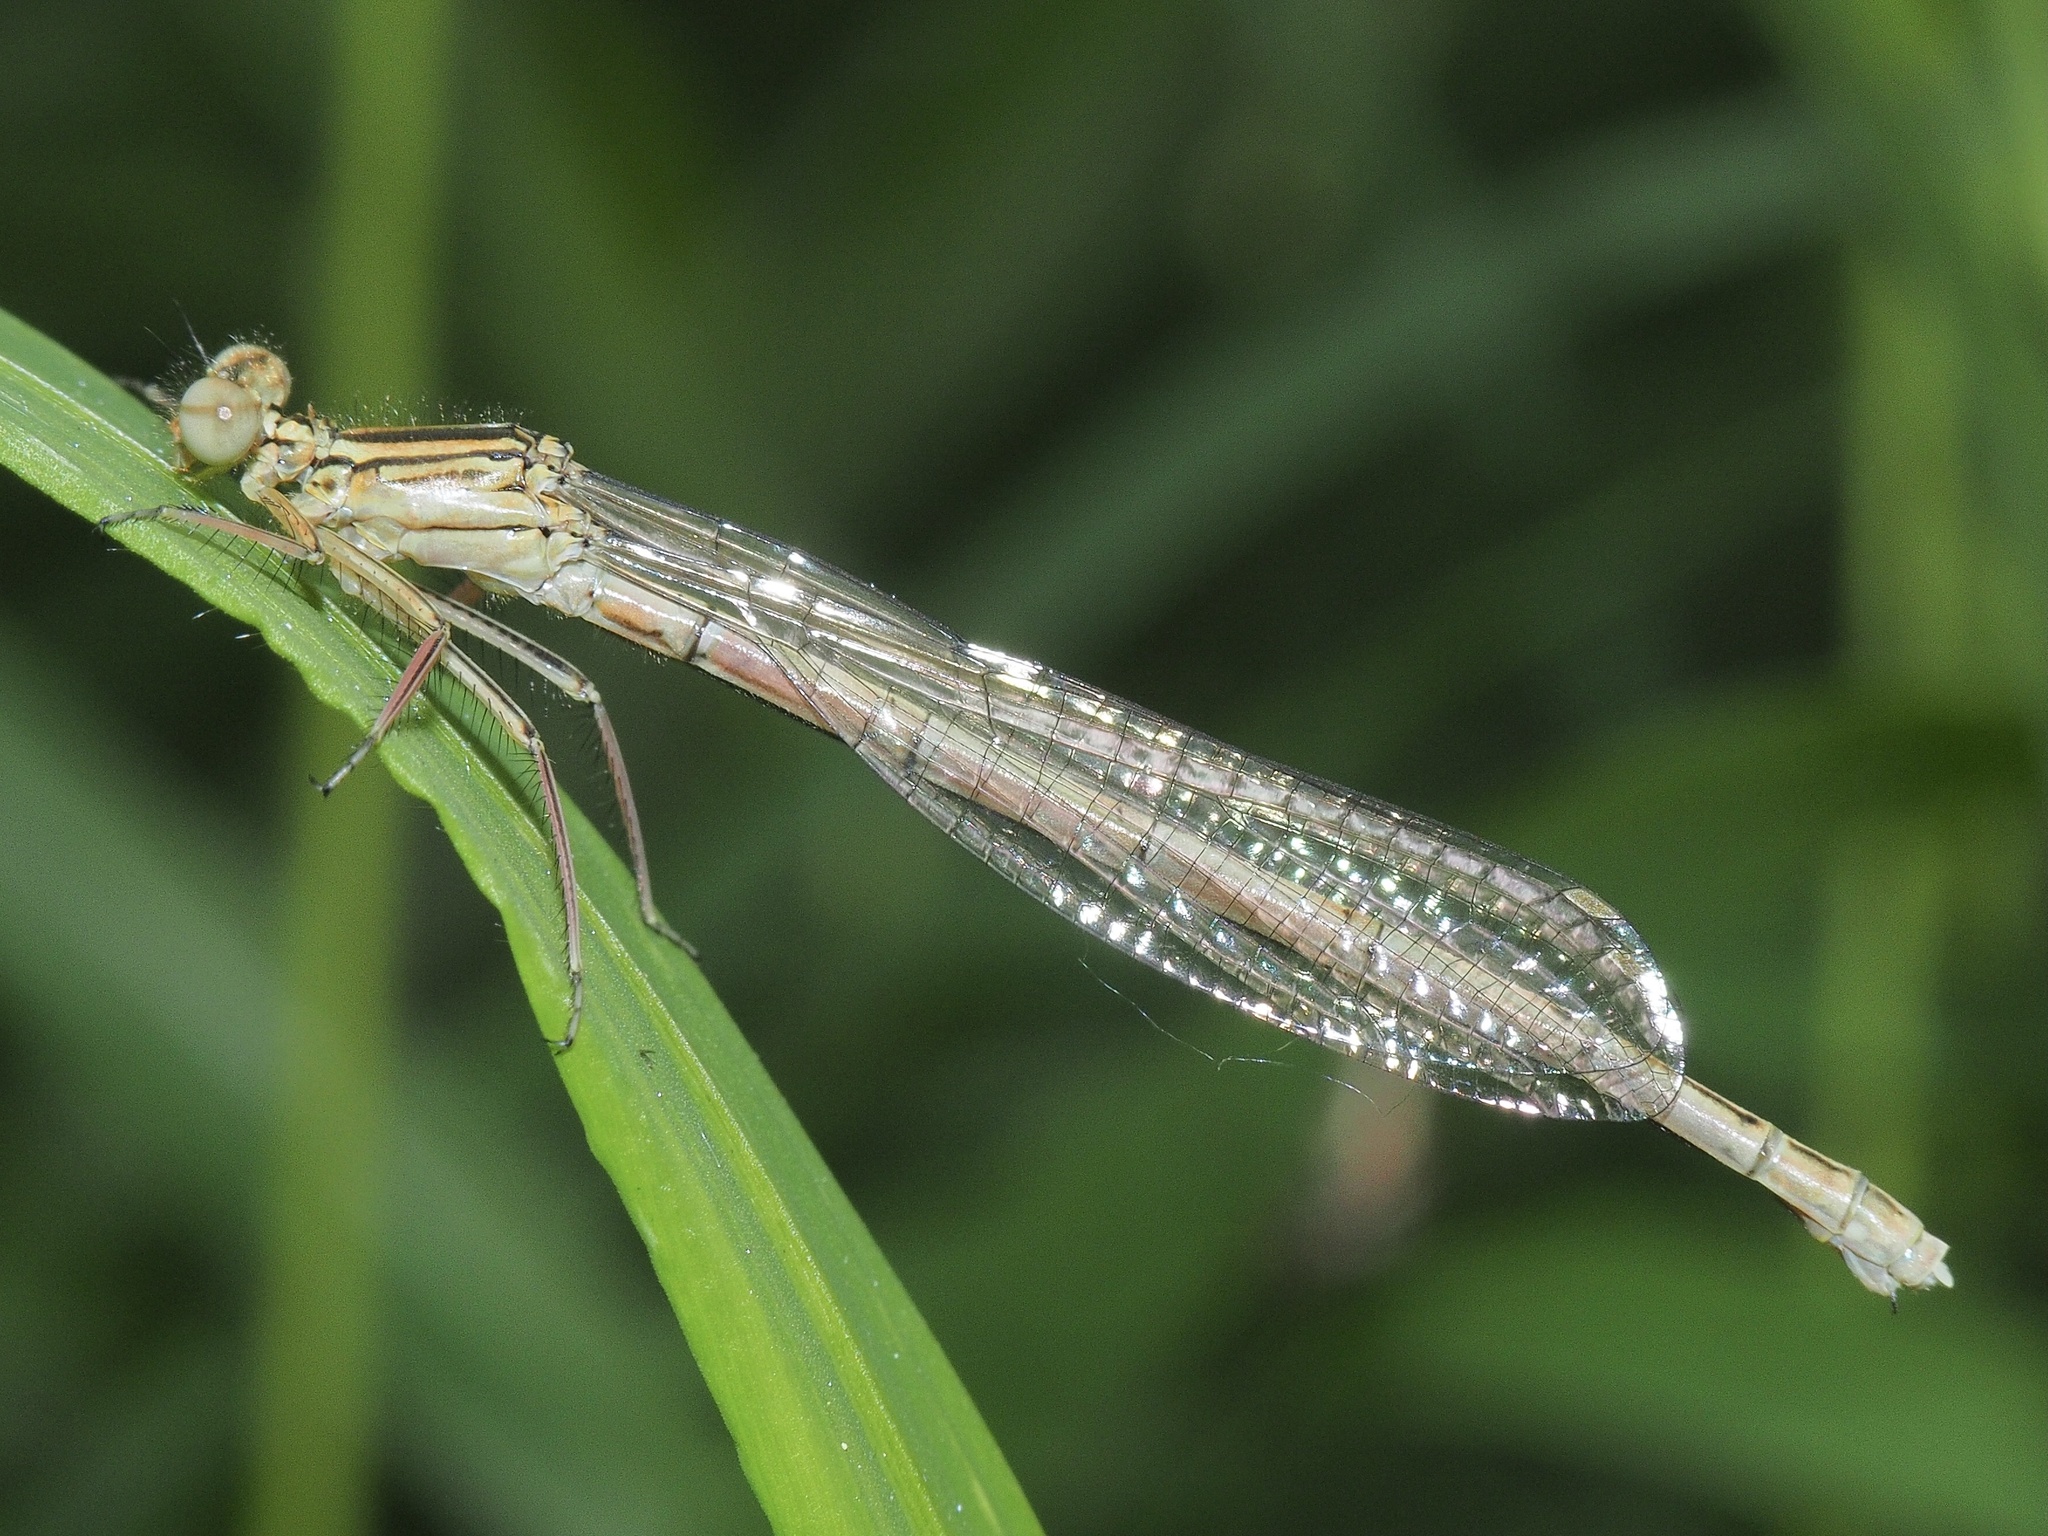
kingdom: Animalia
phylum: Arthropoda
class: Insecta
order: Odonata
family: Platycnemididae
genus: Platycnemis
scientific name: Platycnemis pennipes
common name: White-legged damselfly
